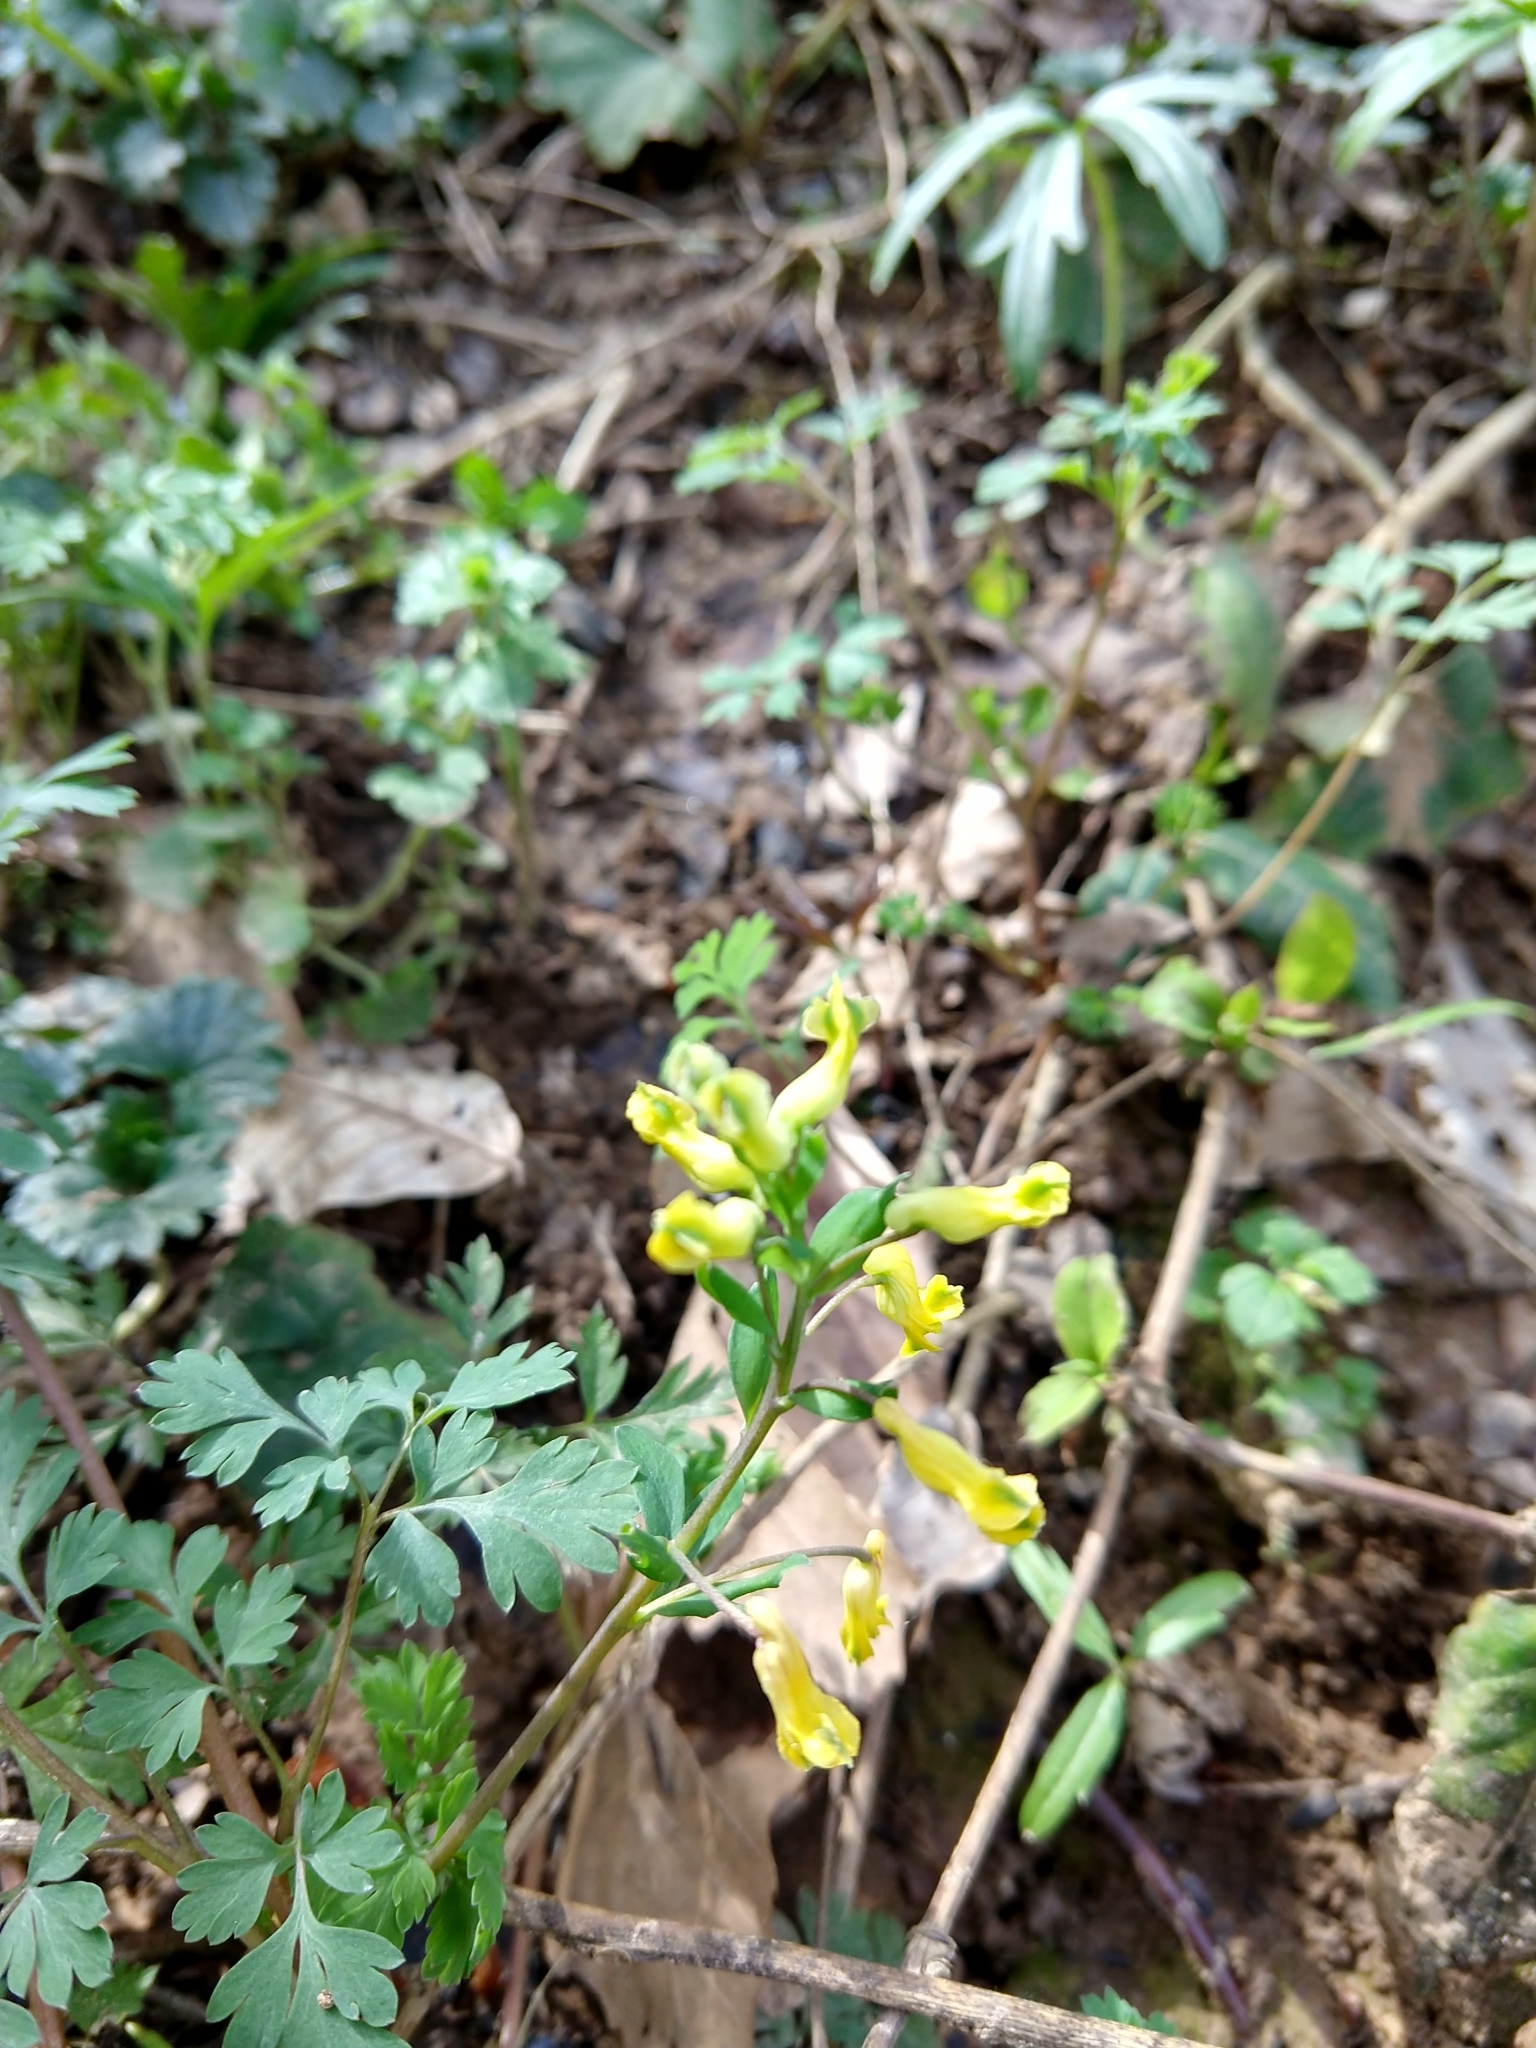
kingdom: Plantae
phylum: Tracheophyta
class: Magnoliopsida
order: Ranunculales
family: Papaveraceae
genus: Corydalis
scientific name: Corydalis flavula
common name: Yellow corydalis
